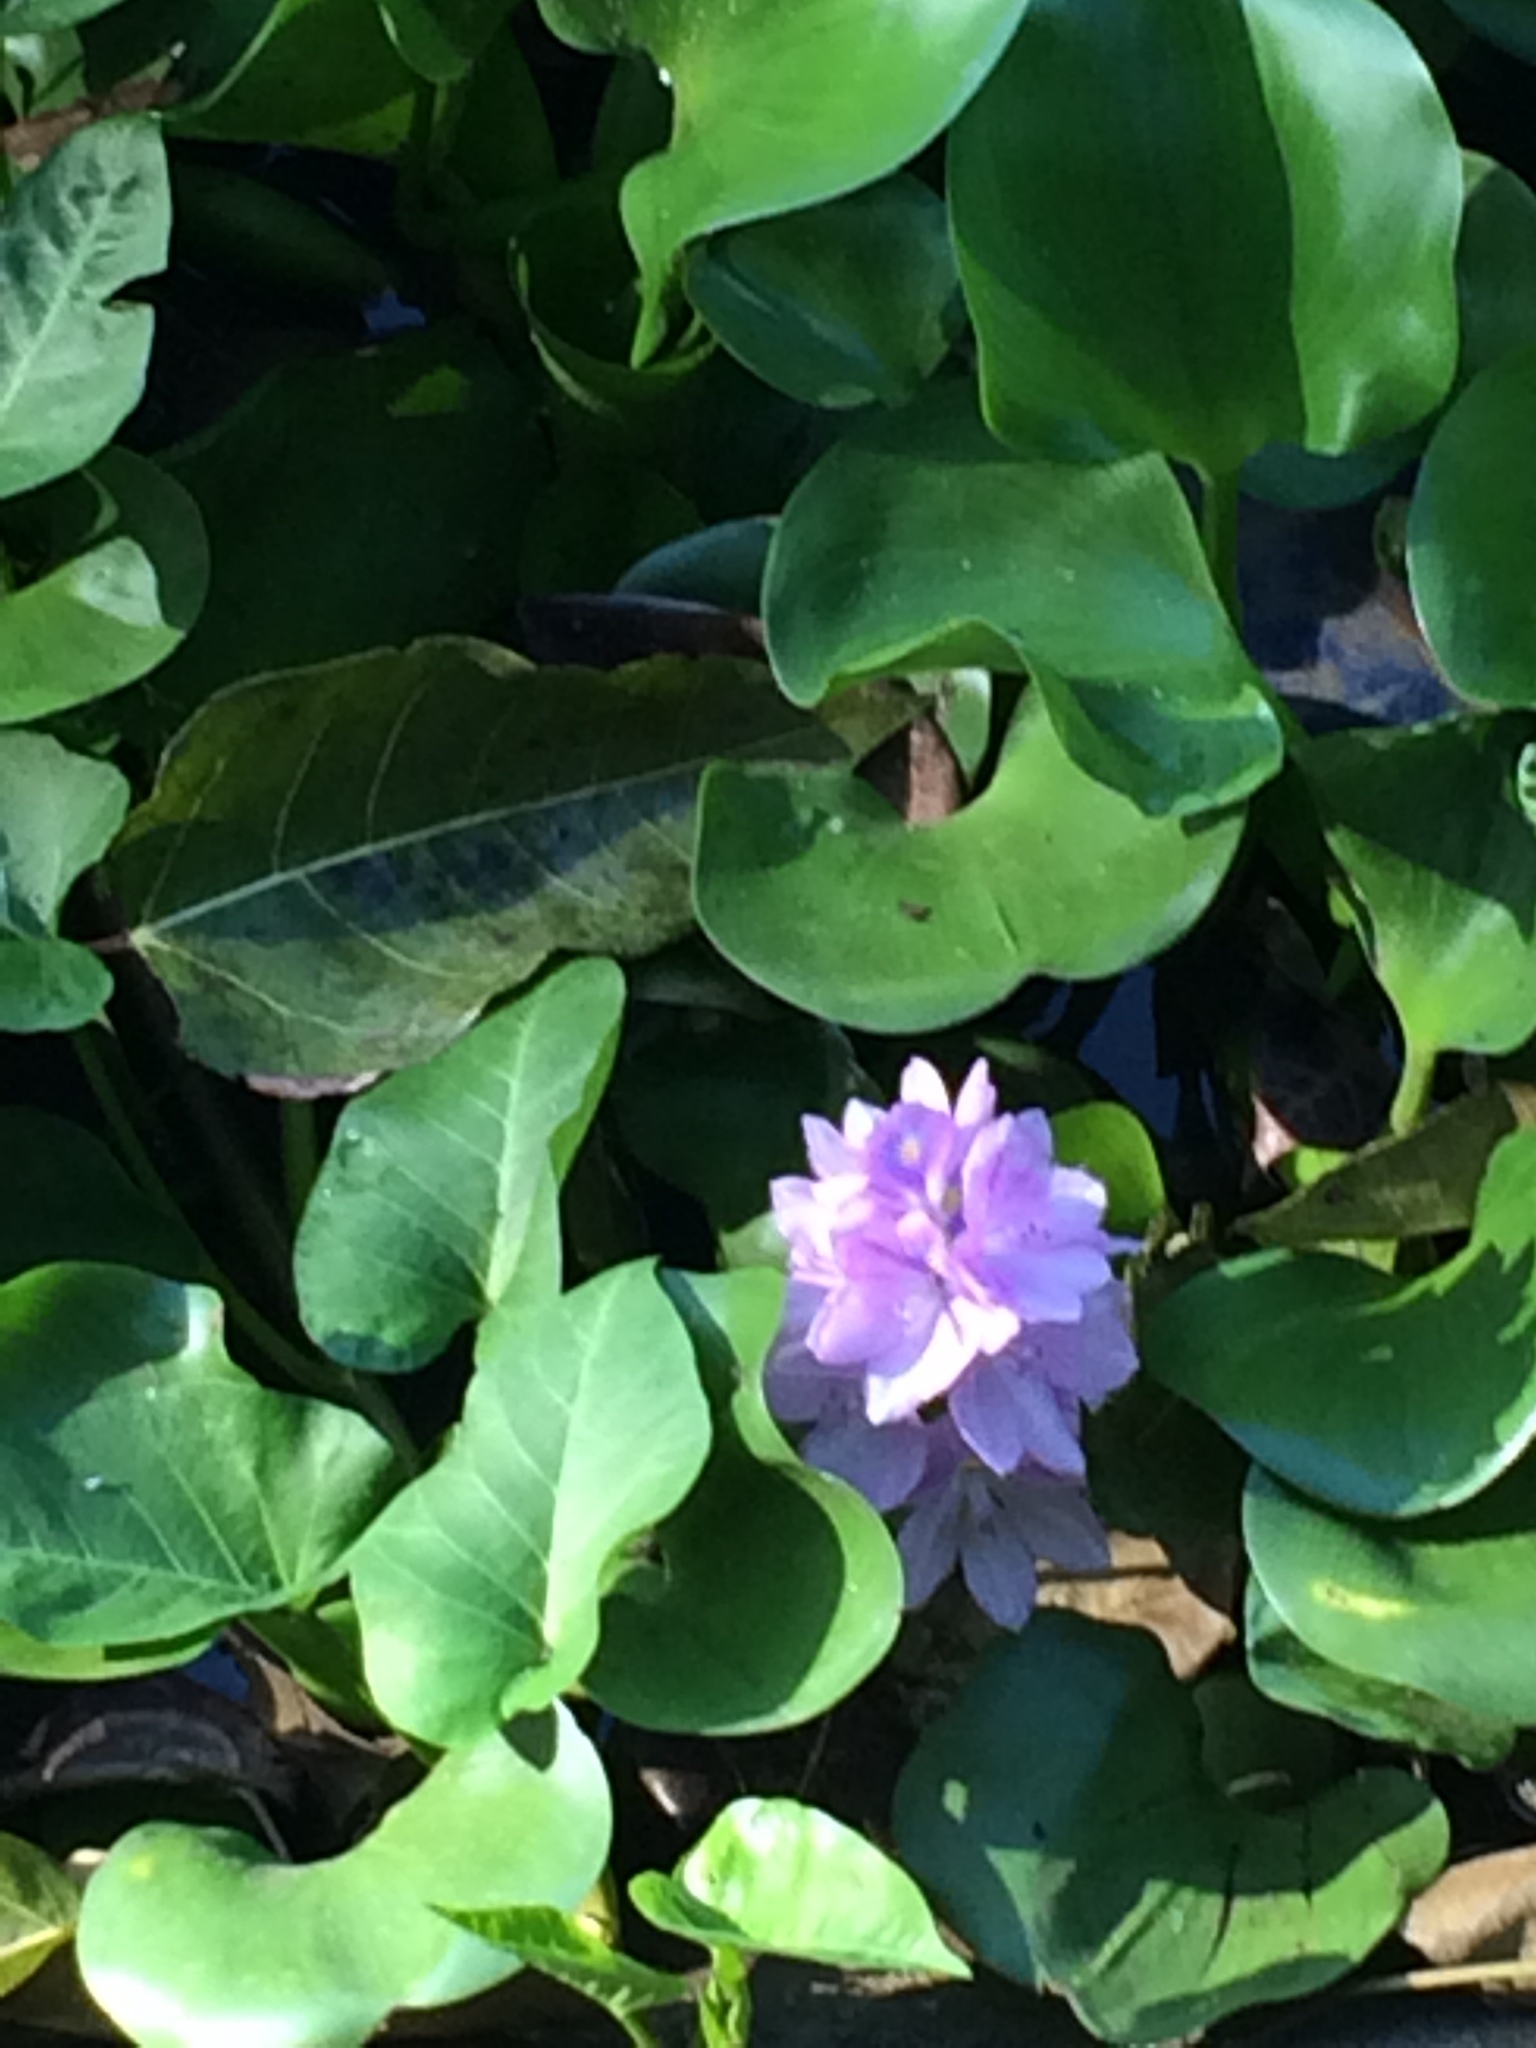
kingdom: Plantae
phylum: Tracheophyta
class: Liliopsida
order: Commelinales
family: Pontederiaceae
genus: Pontederia
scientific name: Pontederia crassipes
